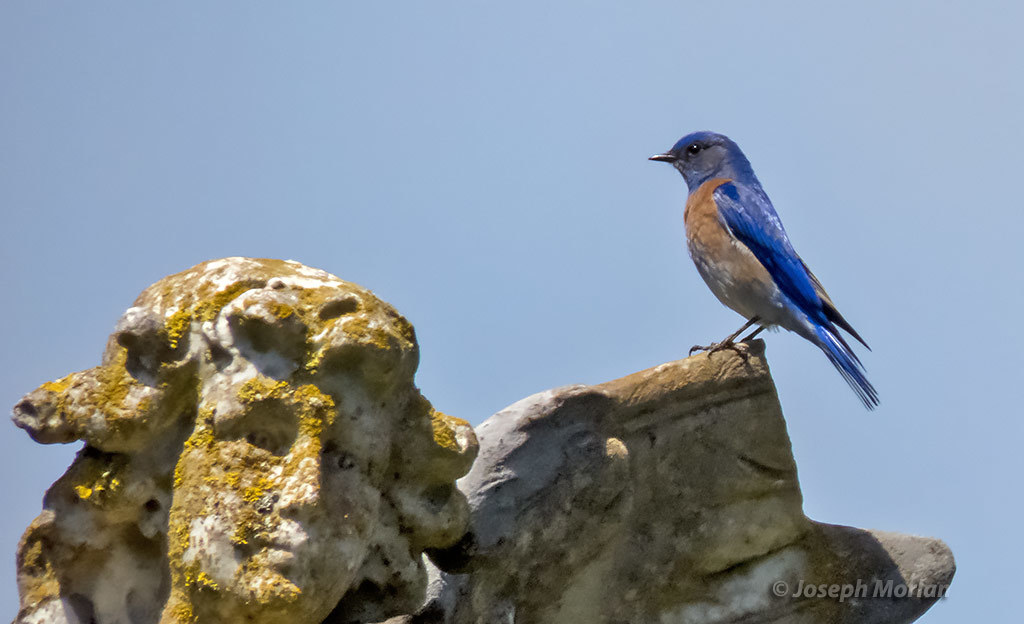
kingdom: Animalia
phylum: Chordata
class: Aves
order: Passeriformes
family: Turdidae
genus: Sialia
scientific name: Sialia mexicana
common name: Western bluebird
